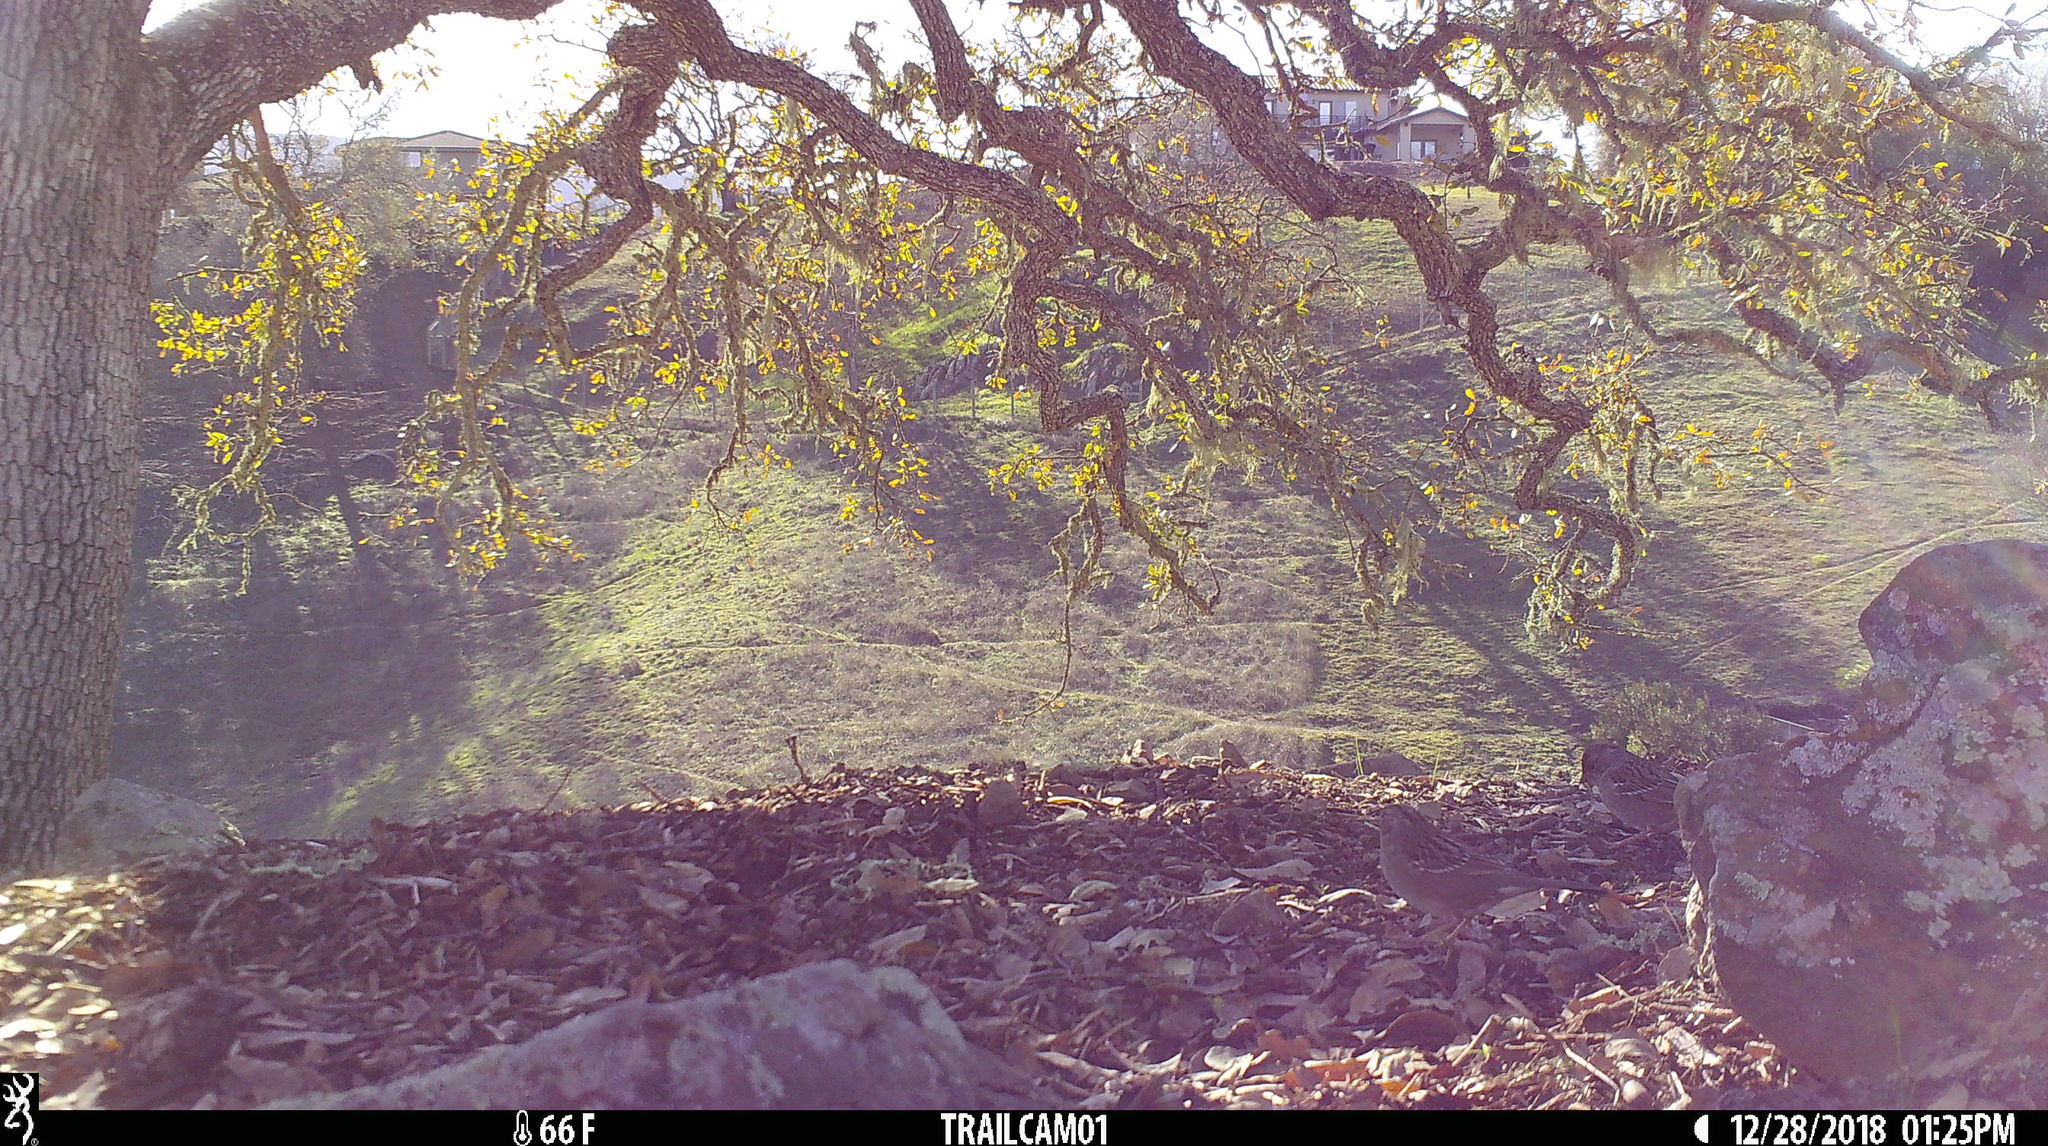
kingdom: Animalia
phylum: Chordata
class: Aves
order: Passeriformes
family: Passerellidae
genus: Zonotrichia
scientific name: Zonotrichia atricapilla
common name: Golden-crowned sparrow
